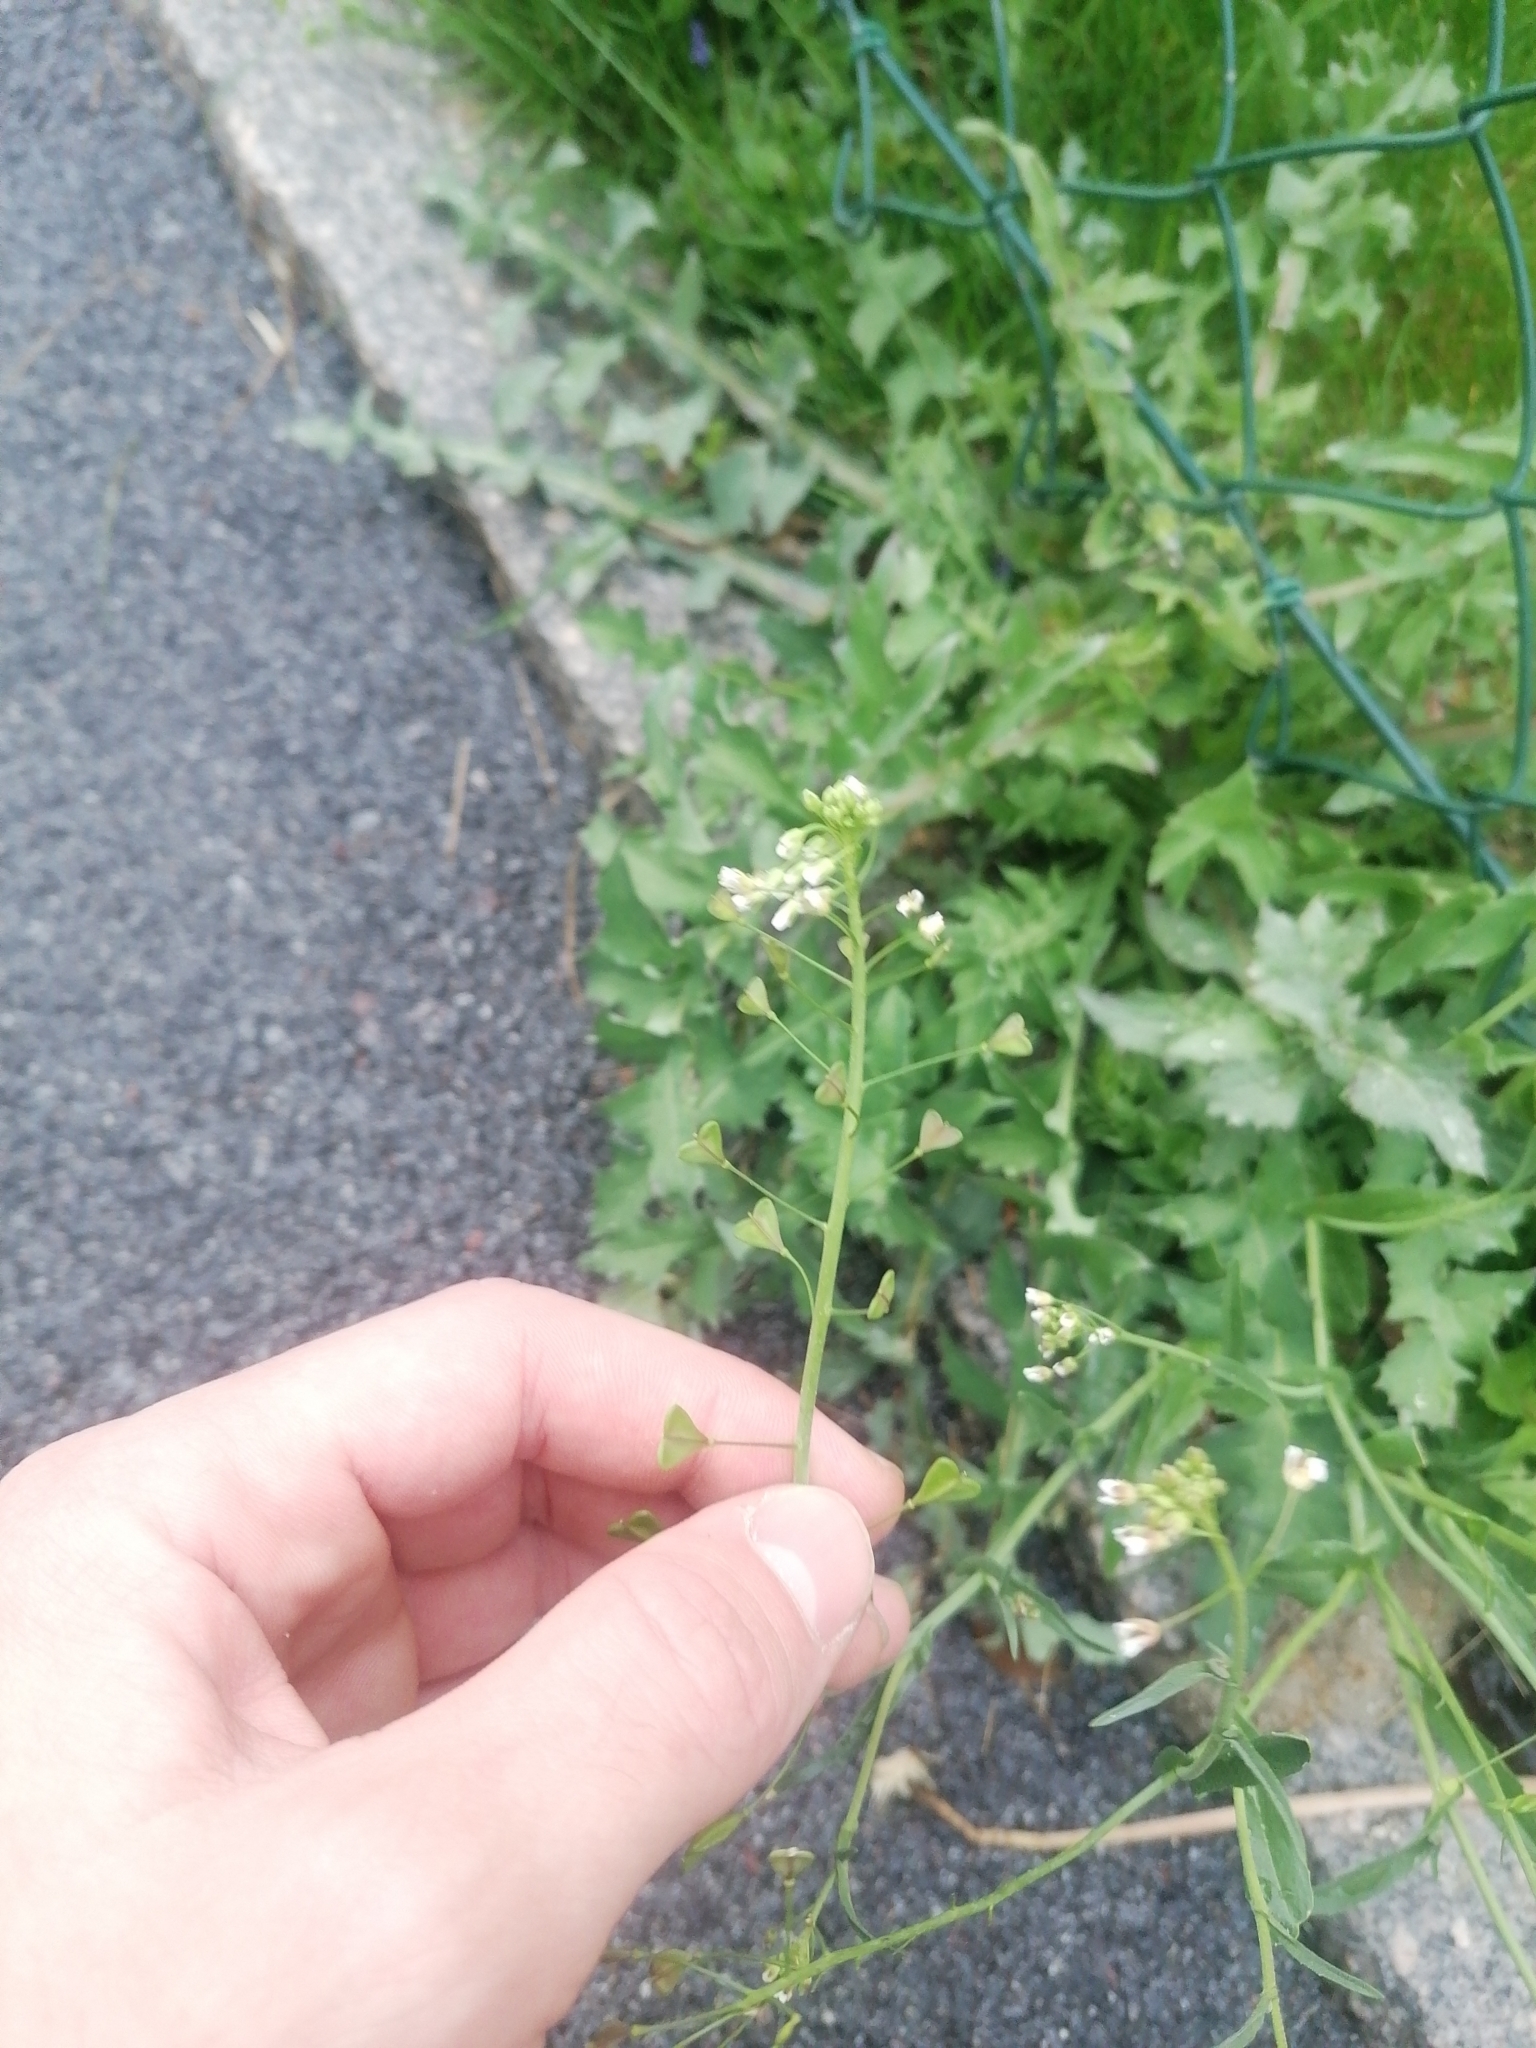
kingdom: Plantae
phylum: Tracheophyta
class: Magnoliopsida
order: Brassicales
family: Brassicaceae
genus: Capsella
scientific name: Capsella bursa-pastoris
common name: Shepherd's purse
